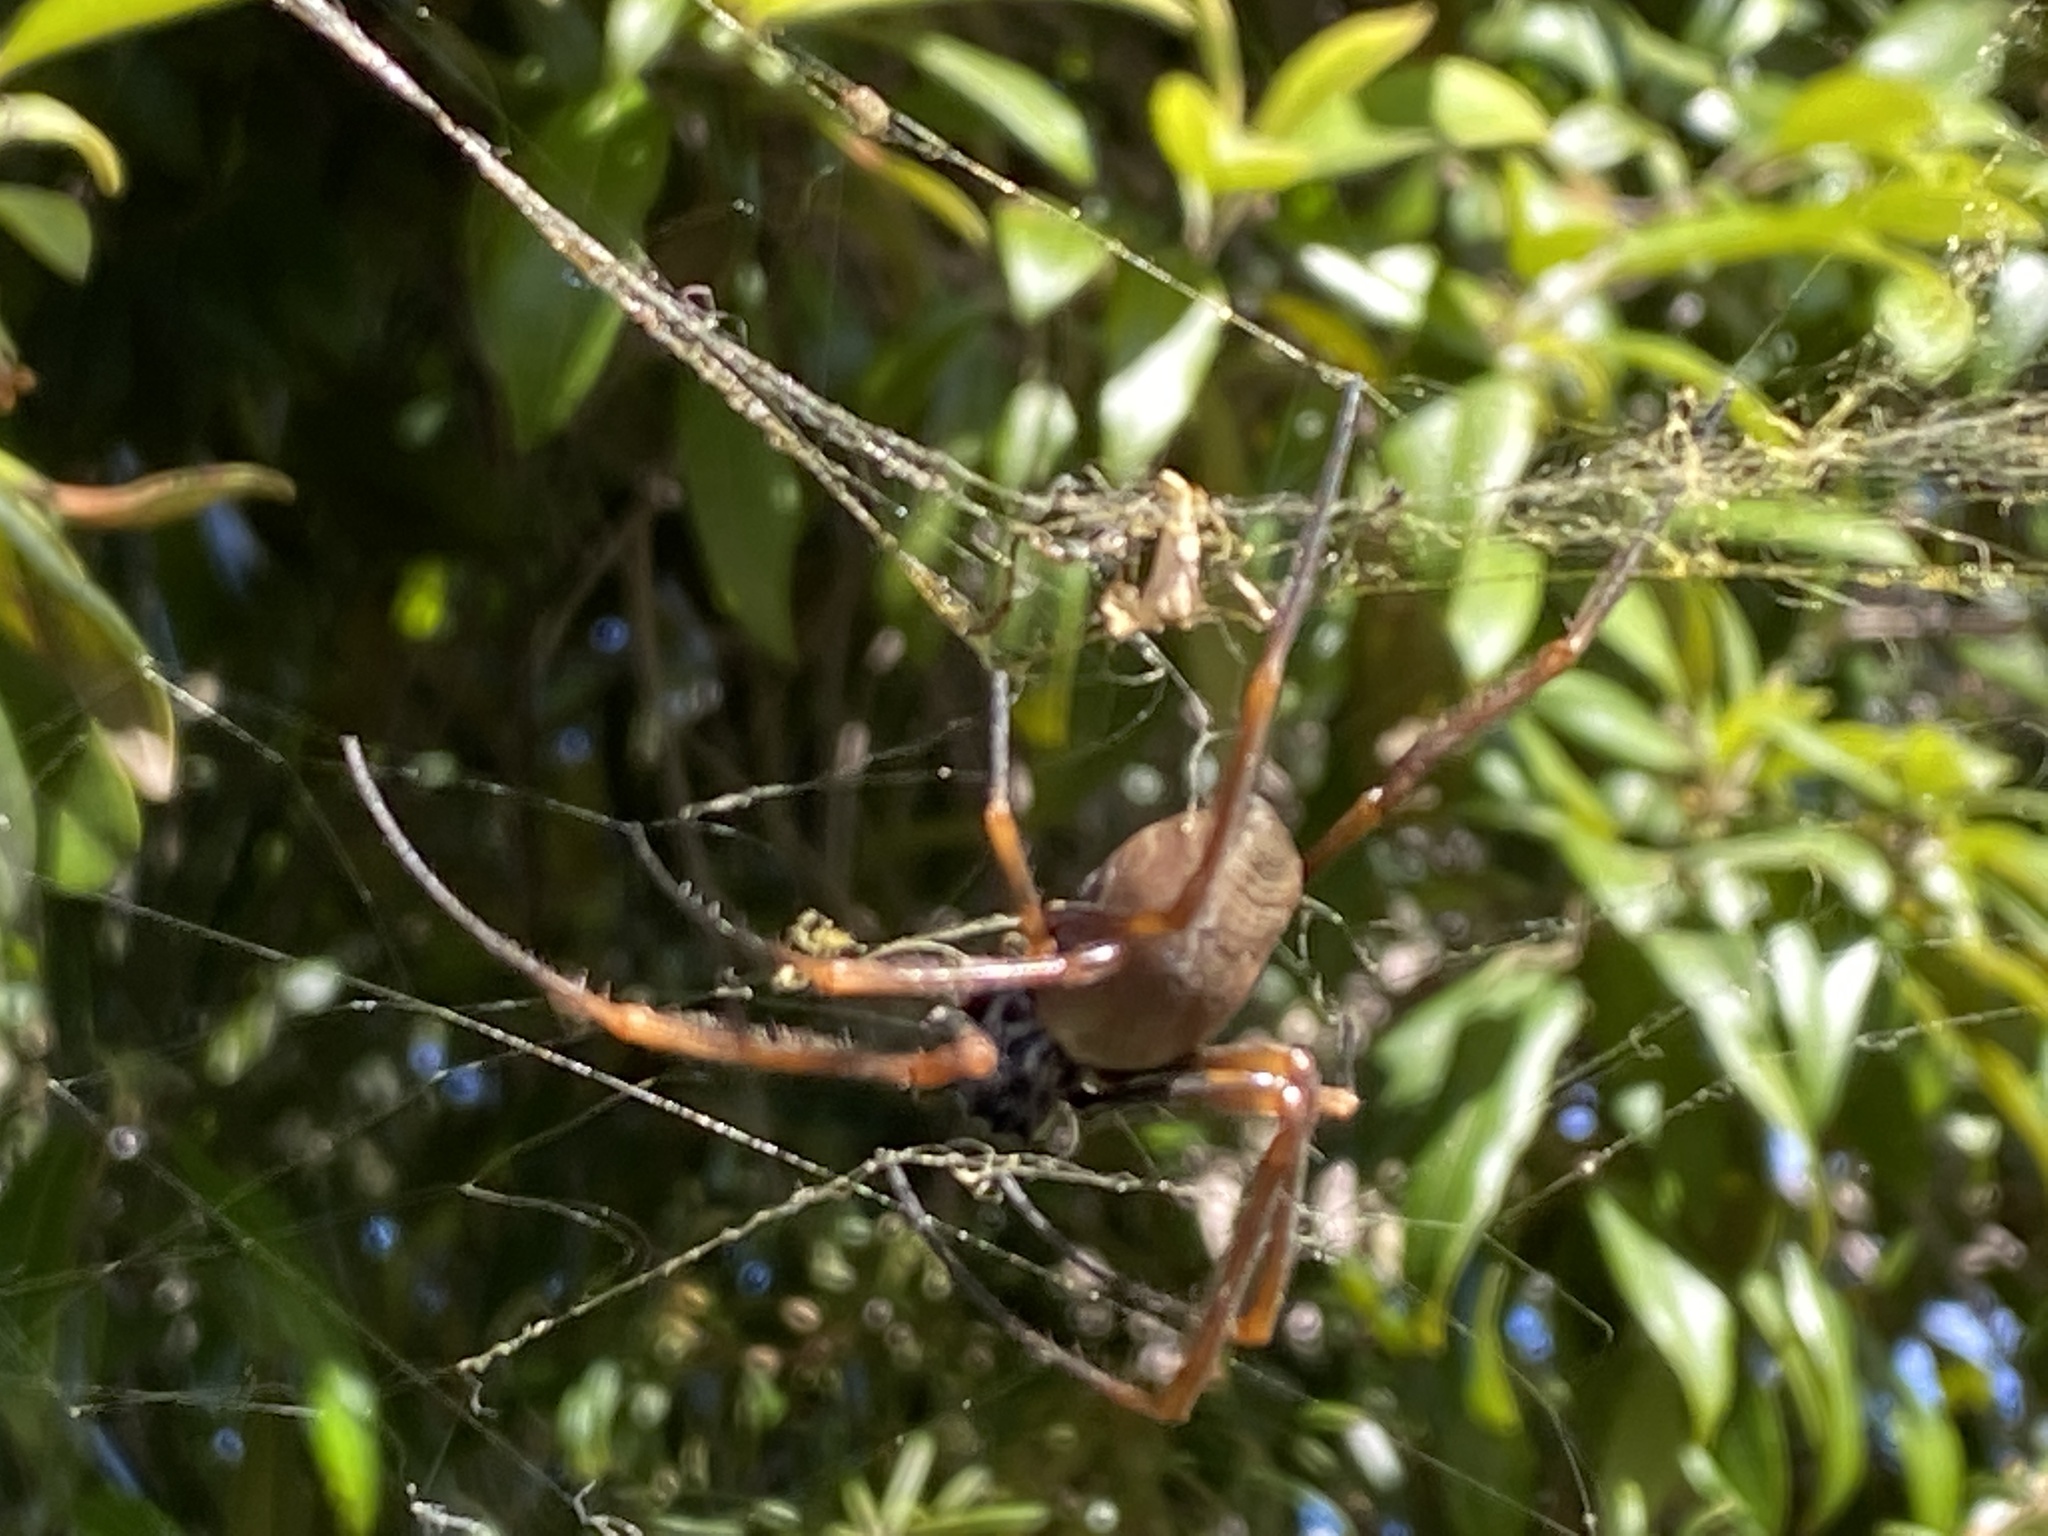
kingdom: Animalia
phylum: Arthropoda
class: Arachnida
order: Araneae
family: Araneidae
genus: Trichonephila
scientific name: Trichonephila plumipes
